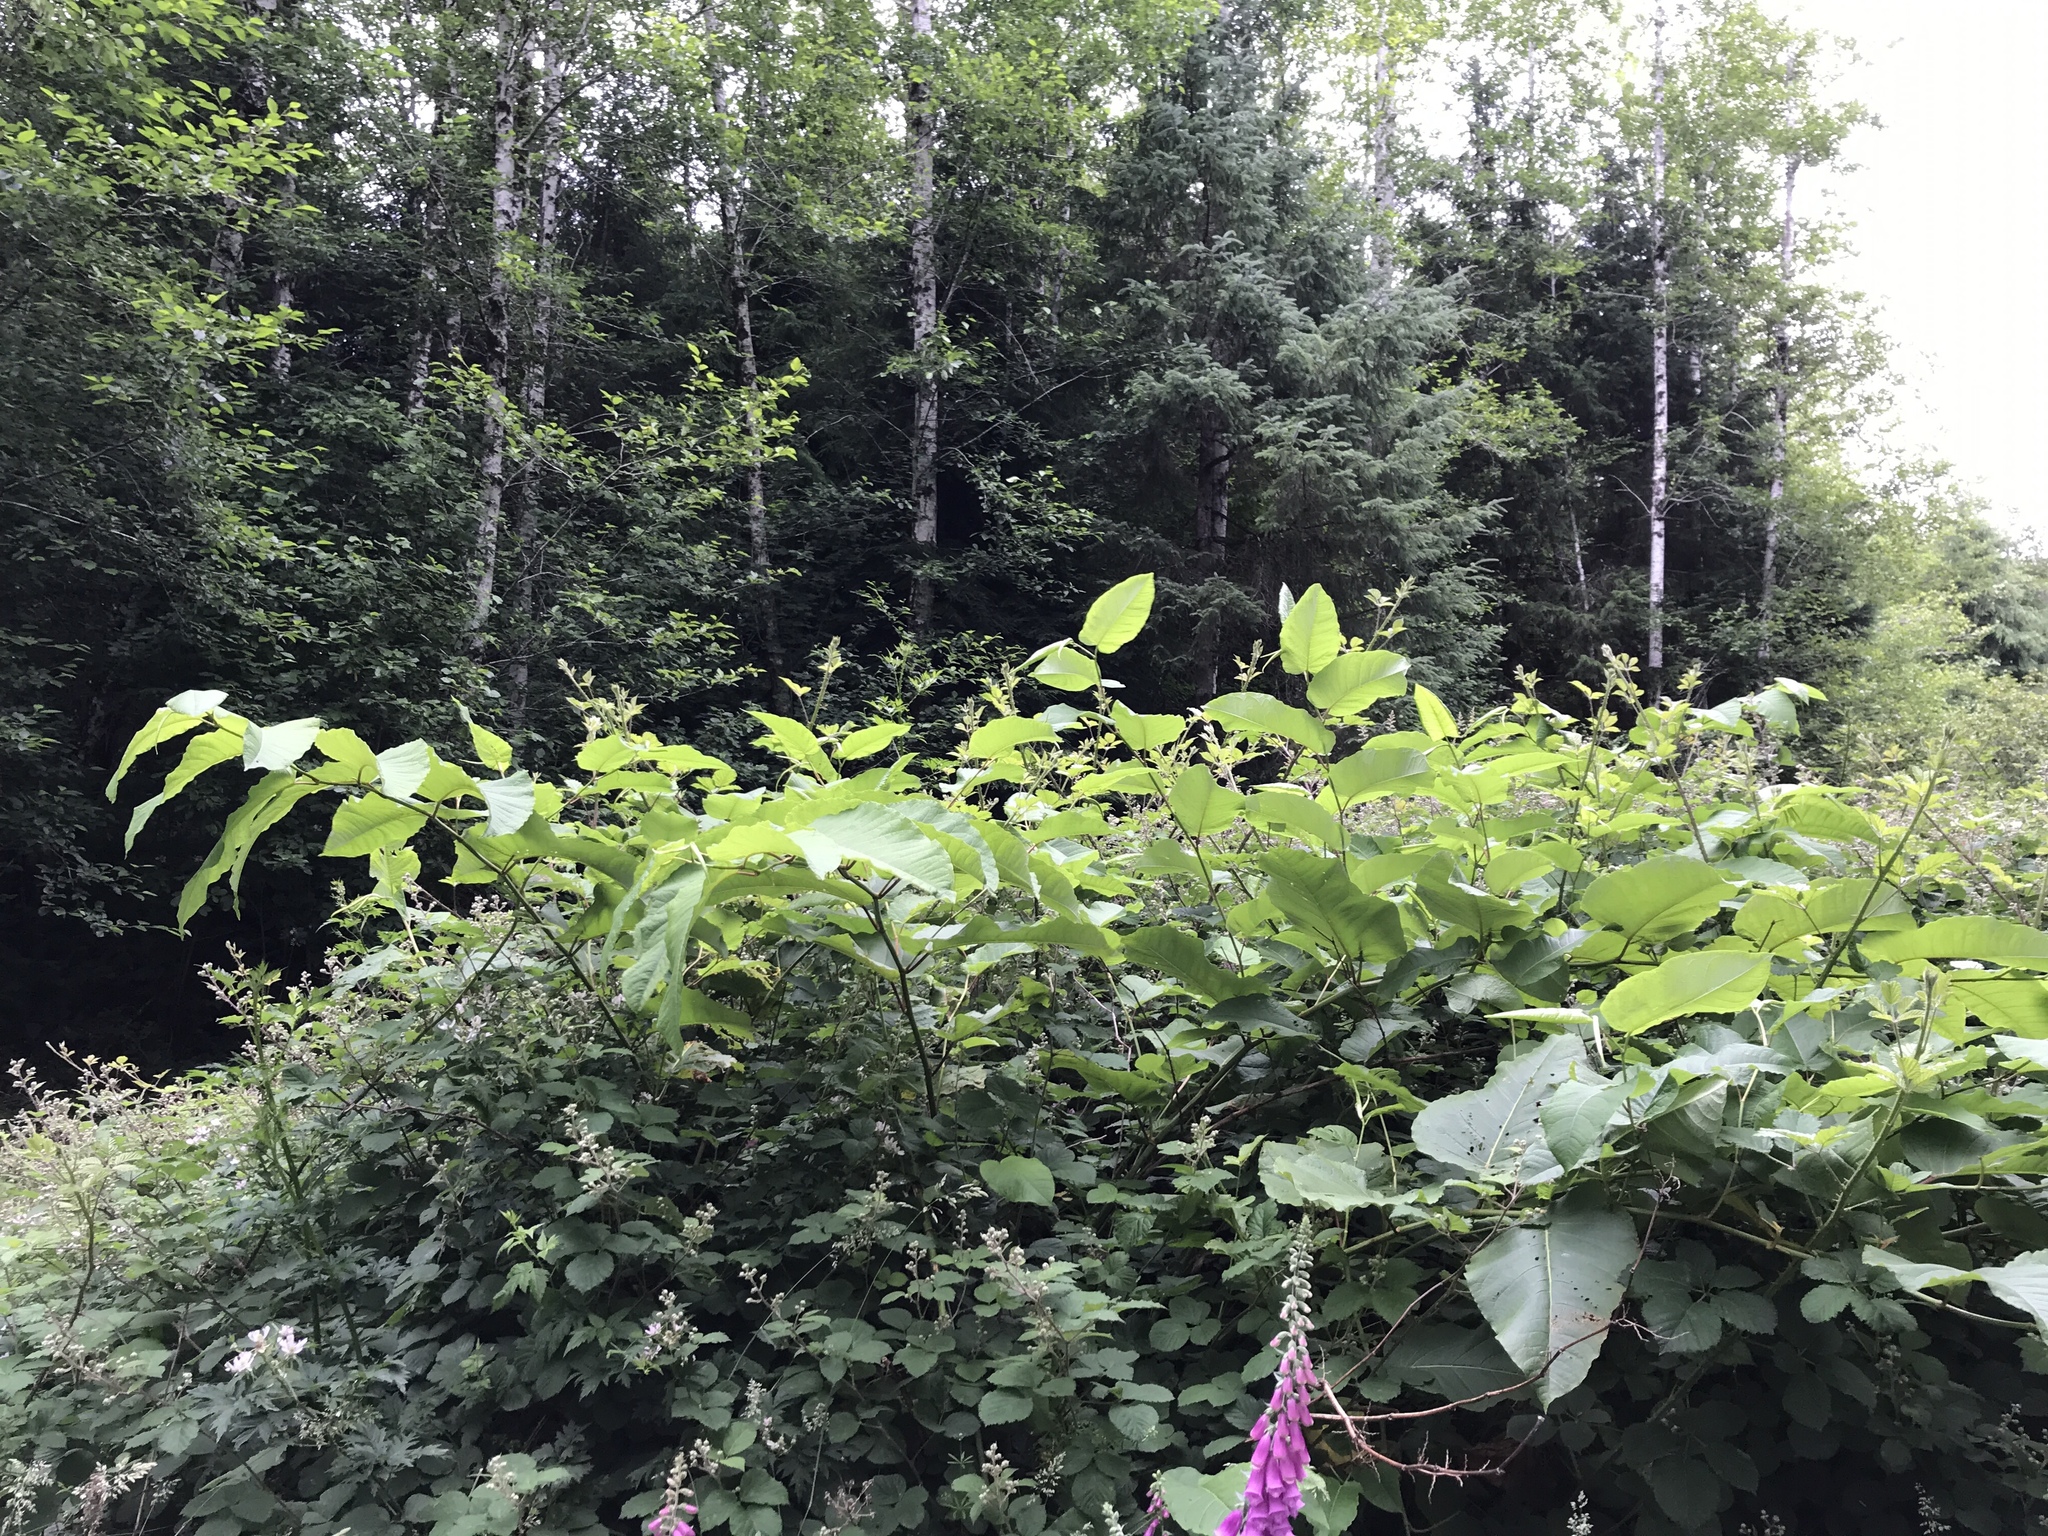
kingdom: Plantae
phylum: Tracheophyta
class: Magnoliopsida
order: Caryophyllales
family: Polygonaceae
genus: Reynoutria
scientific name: Reynoutria sachalinensis
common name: Giant knotweed
